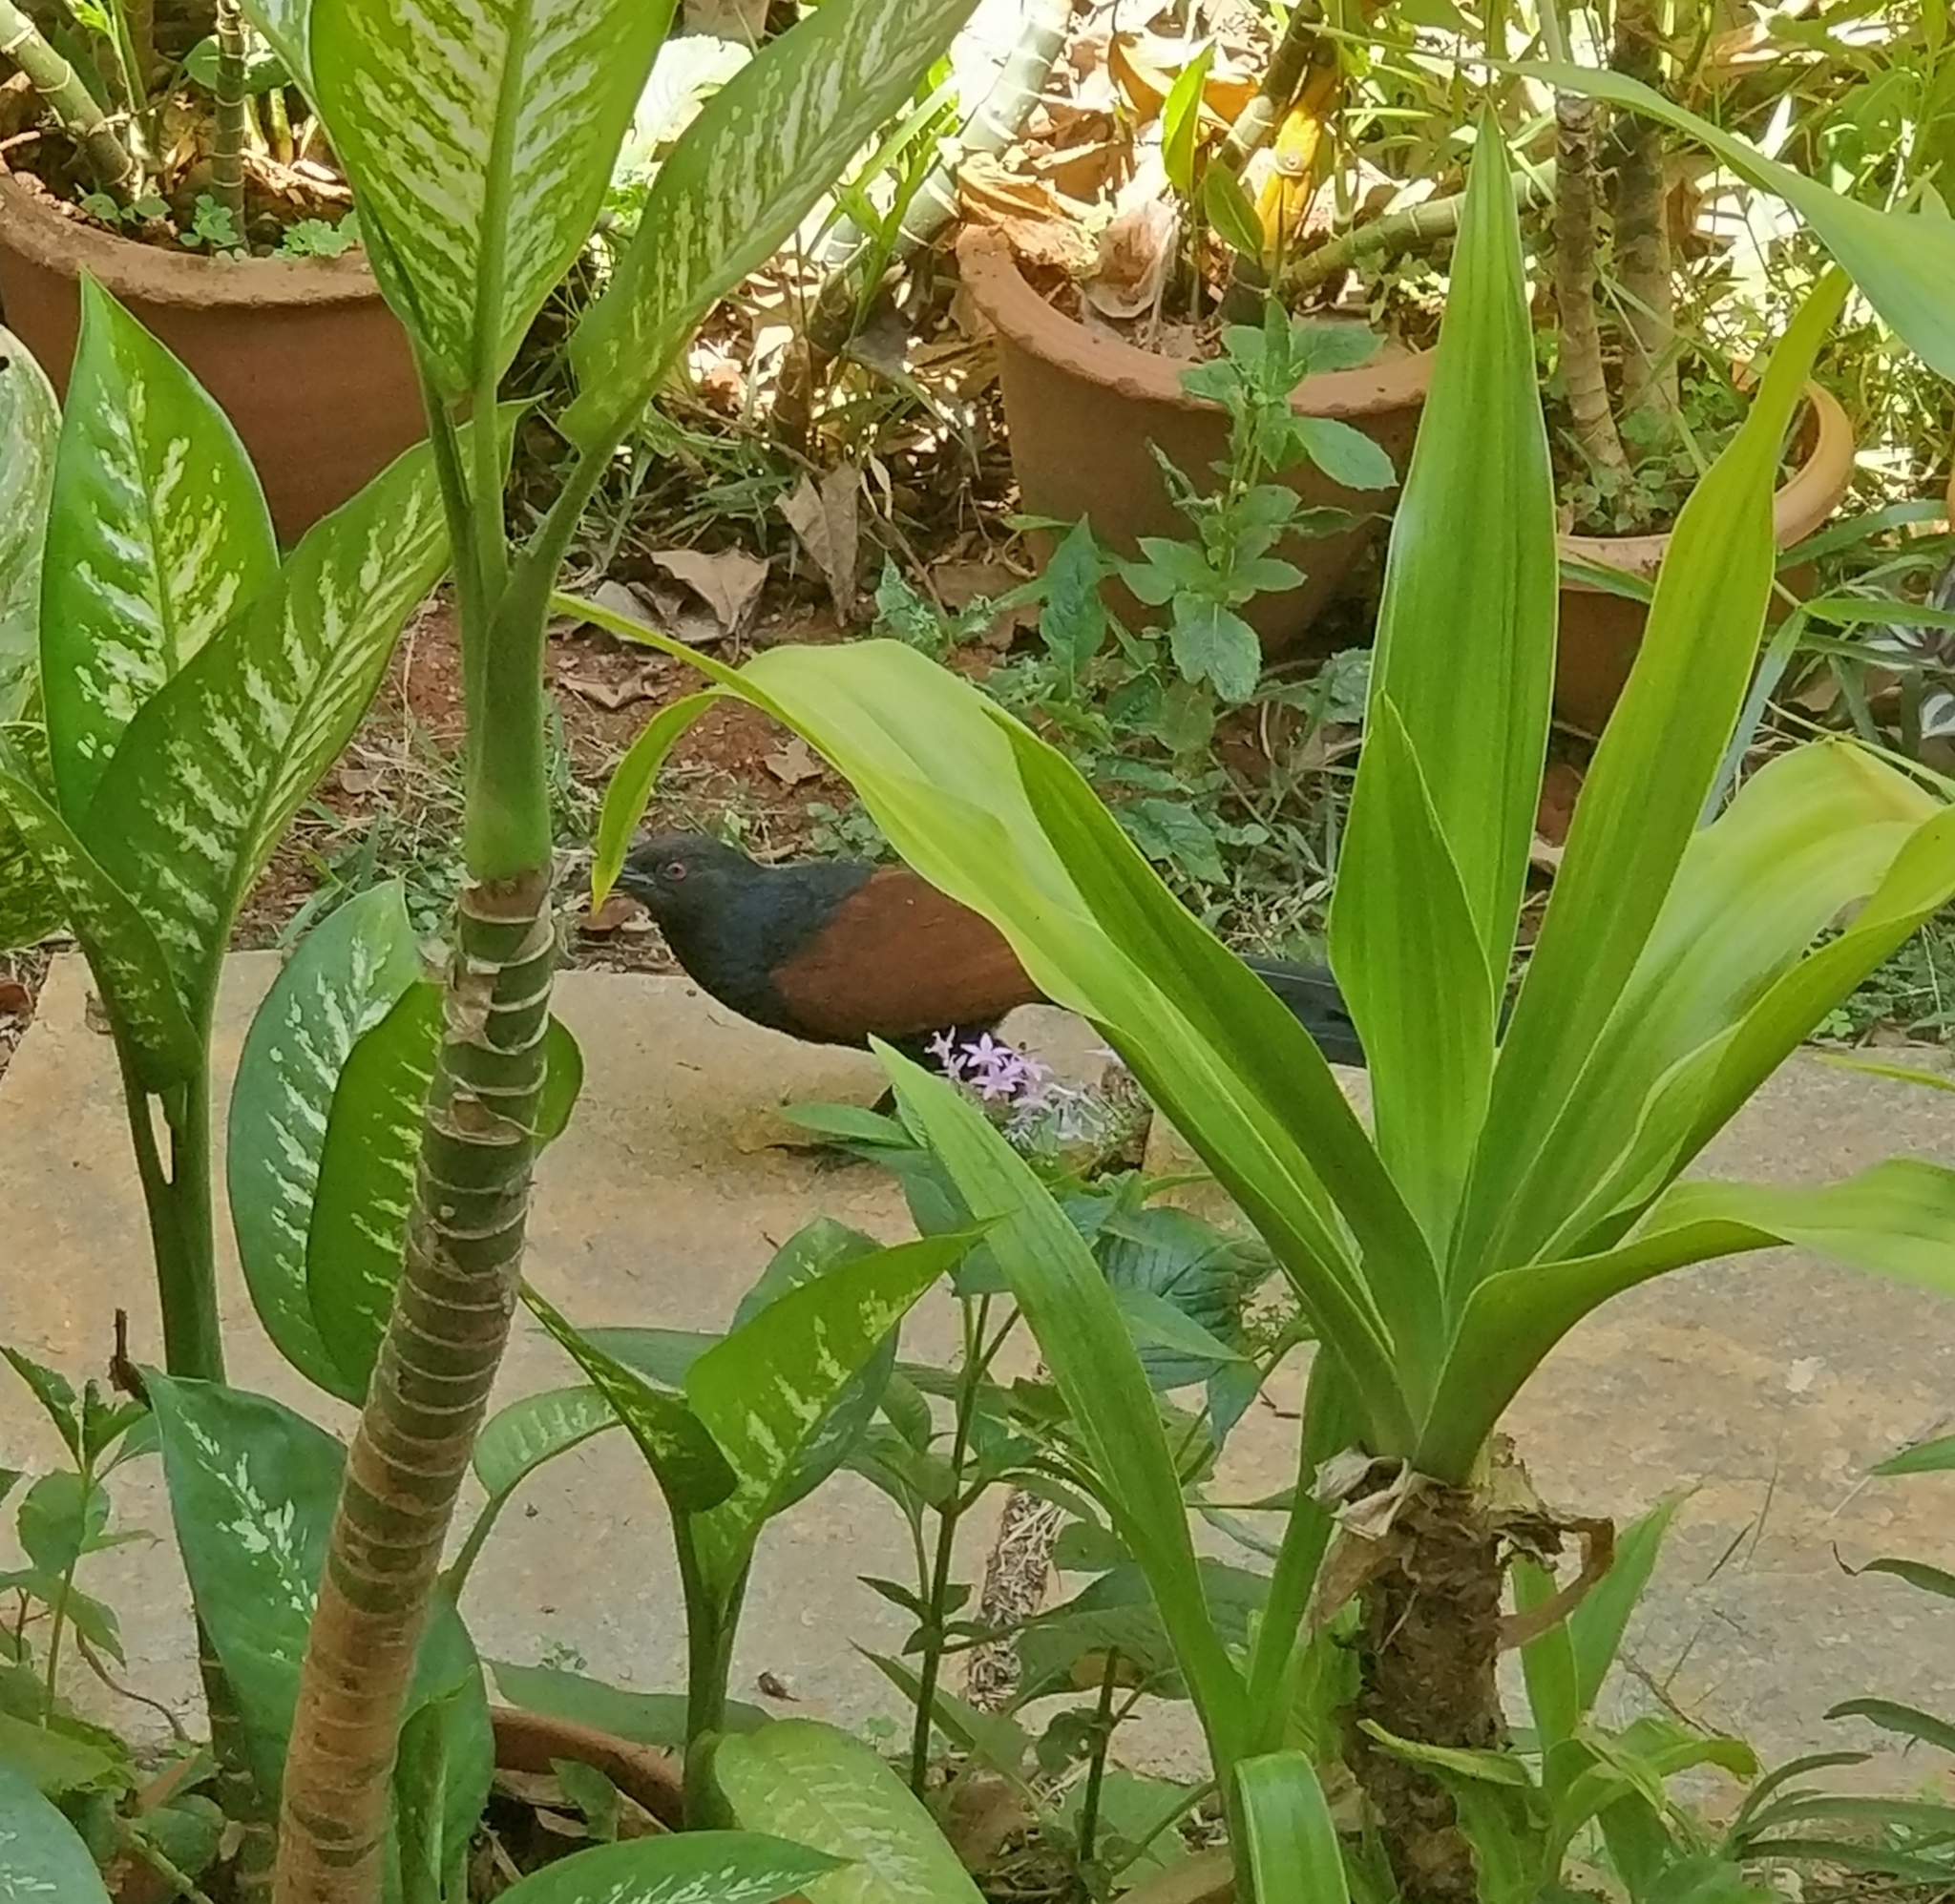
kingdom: Animalia
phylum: Chordata
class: Aves
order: Cuculiformes
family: Cuculidae
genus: Centropus
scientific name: Centropus sinensis
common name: Greater coucal
